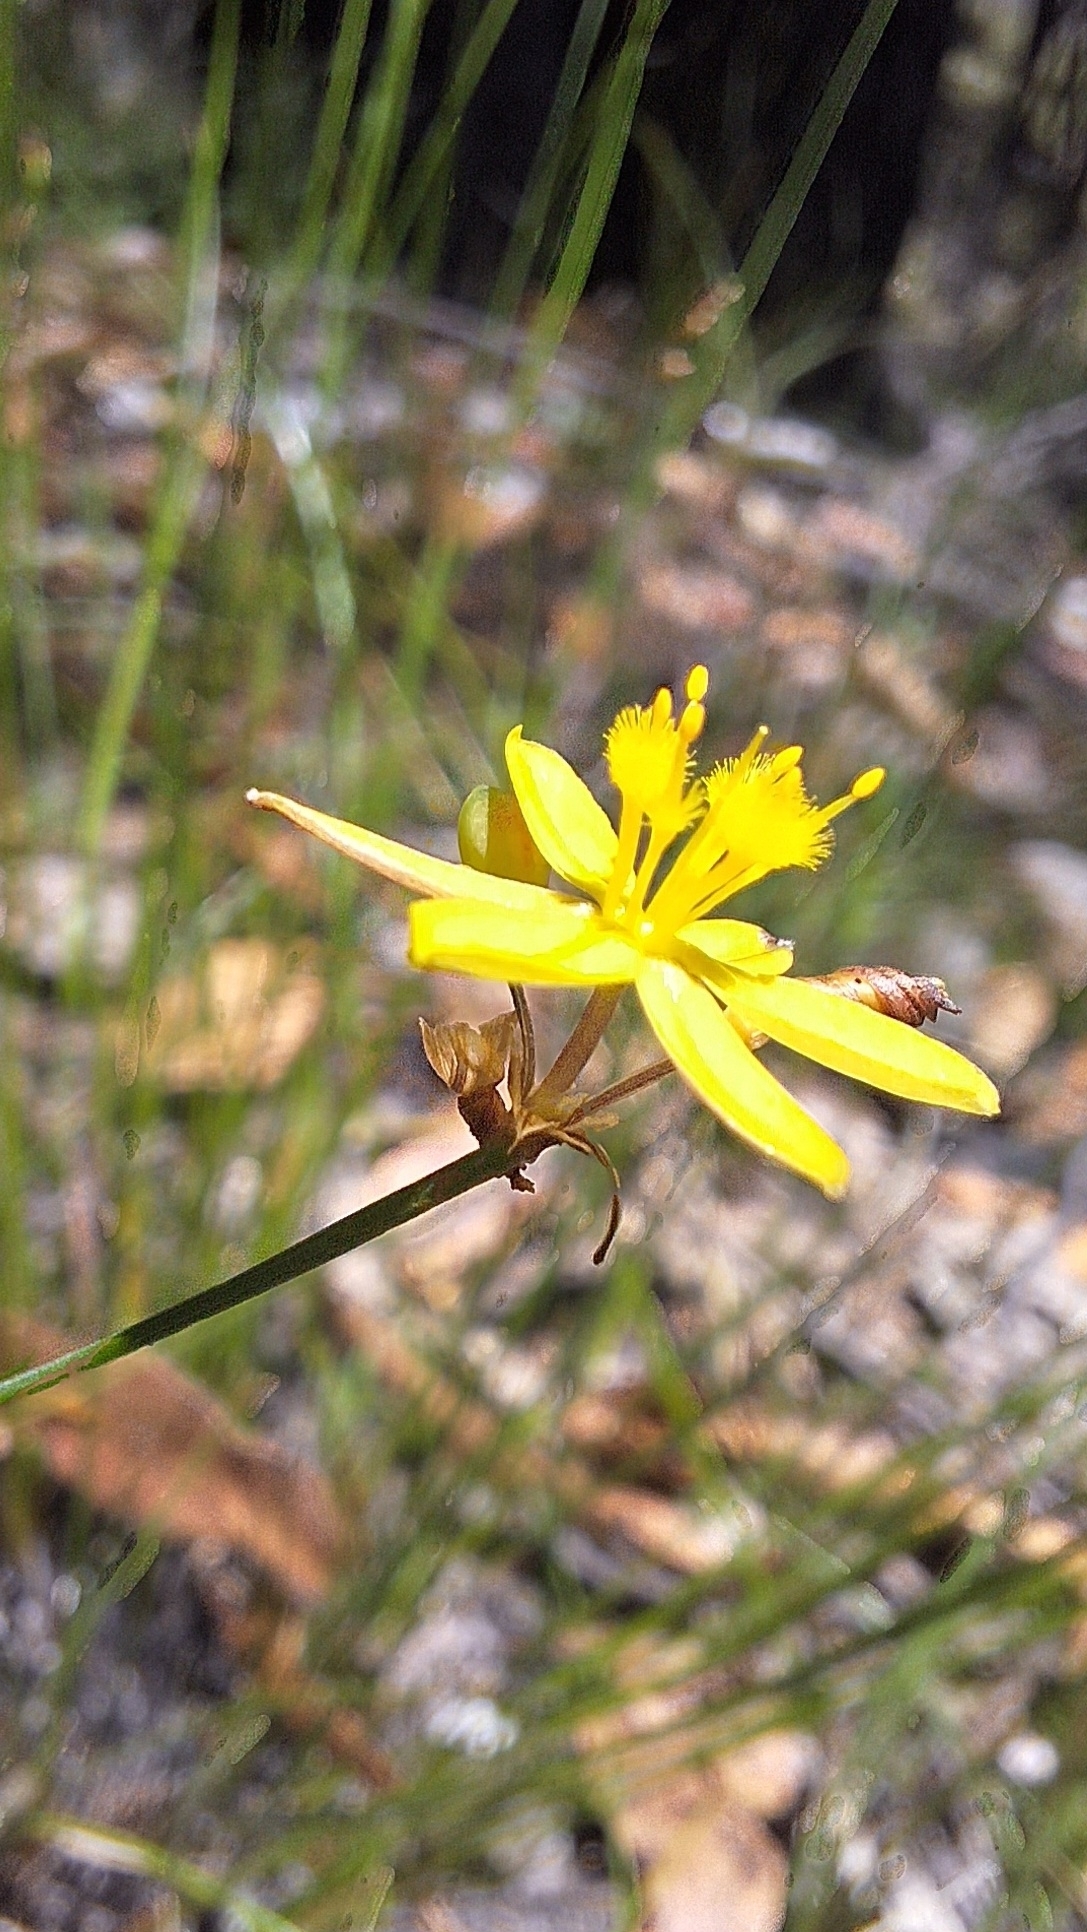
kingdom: Plantae
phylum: Tracheophyta
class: Liliopsida
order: Asparagales
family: Asphodelaceae
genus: Tricoryne
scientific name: Tricoryne elatior
